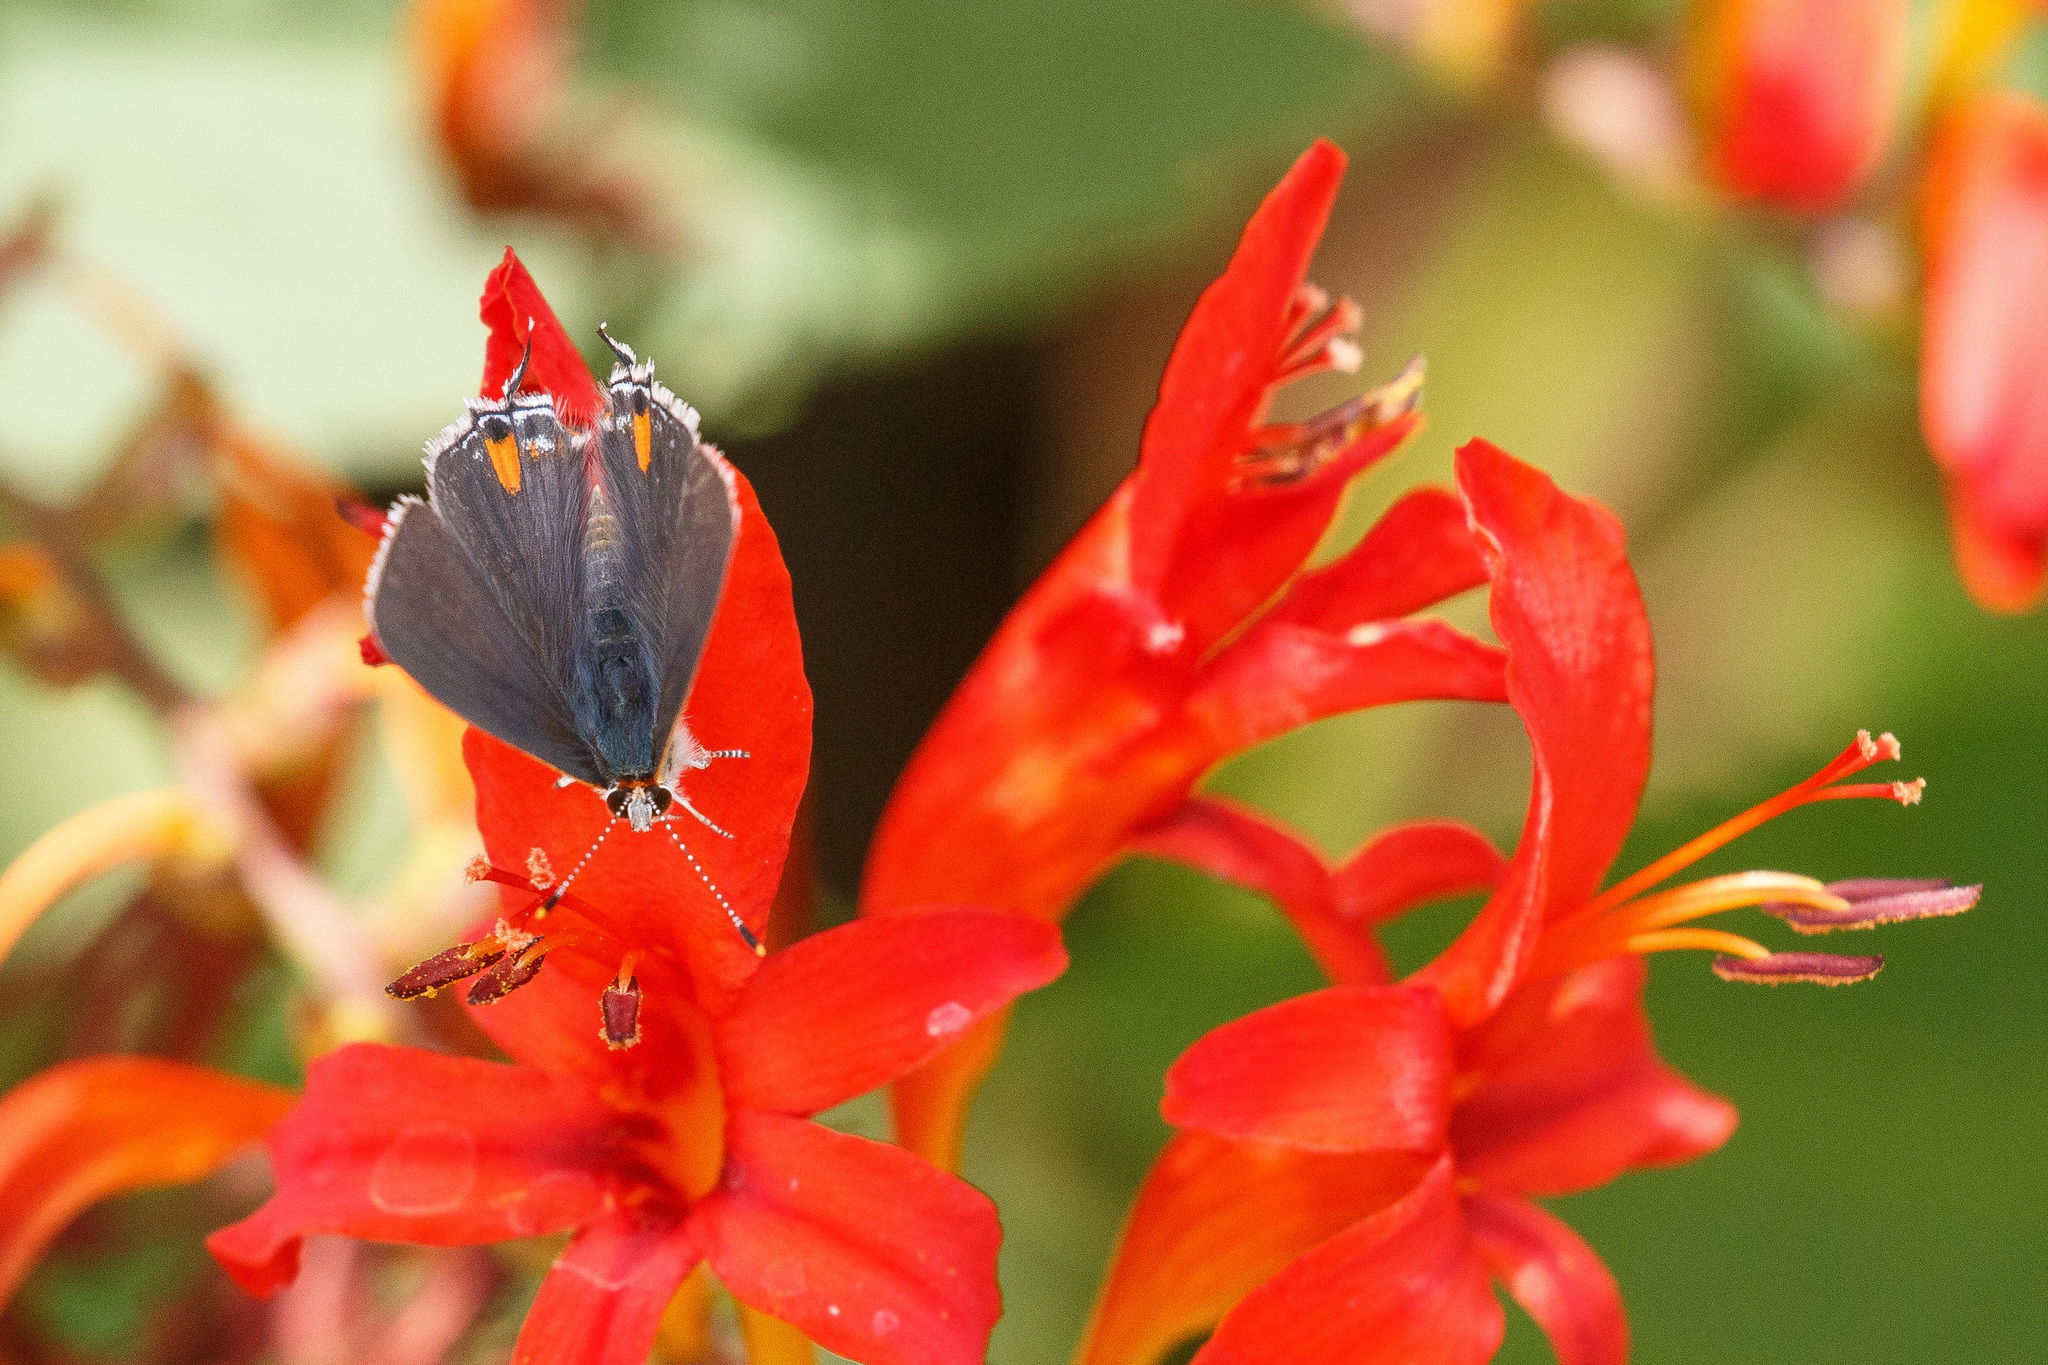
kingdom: Animalia
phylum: Arthropoda
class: Insecta
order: Lepidoptera
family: Lycaenidae
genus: Strymon
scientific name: Strymon melinus
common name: Gray hairstreak
